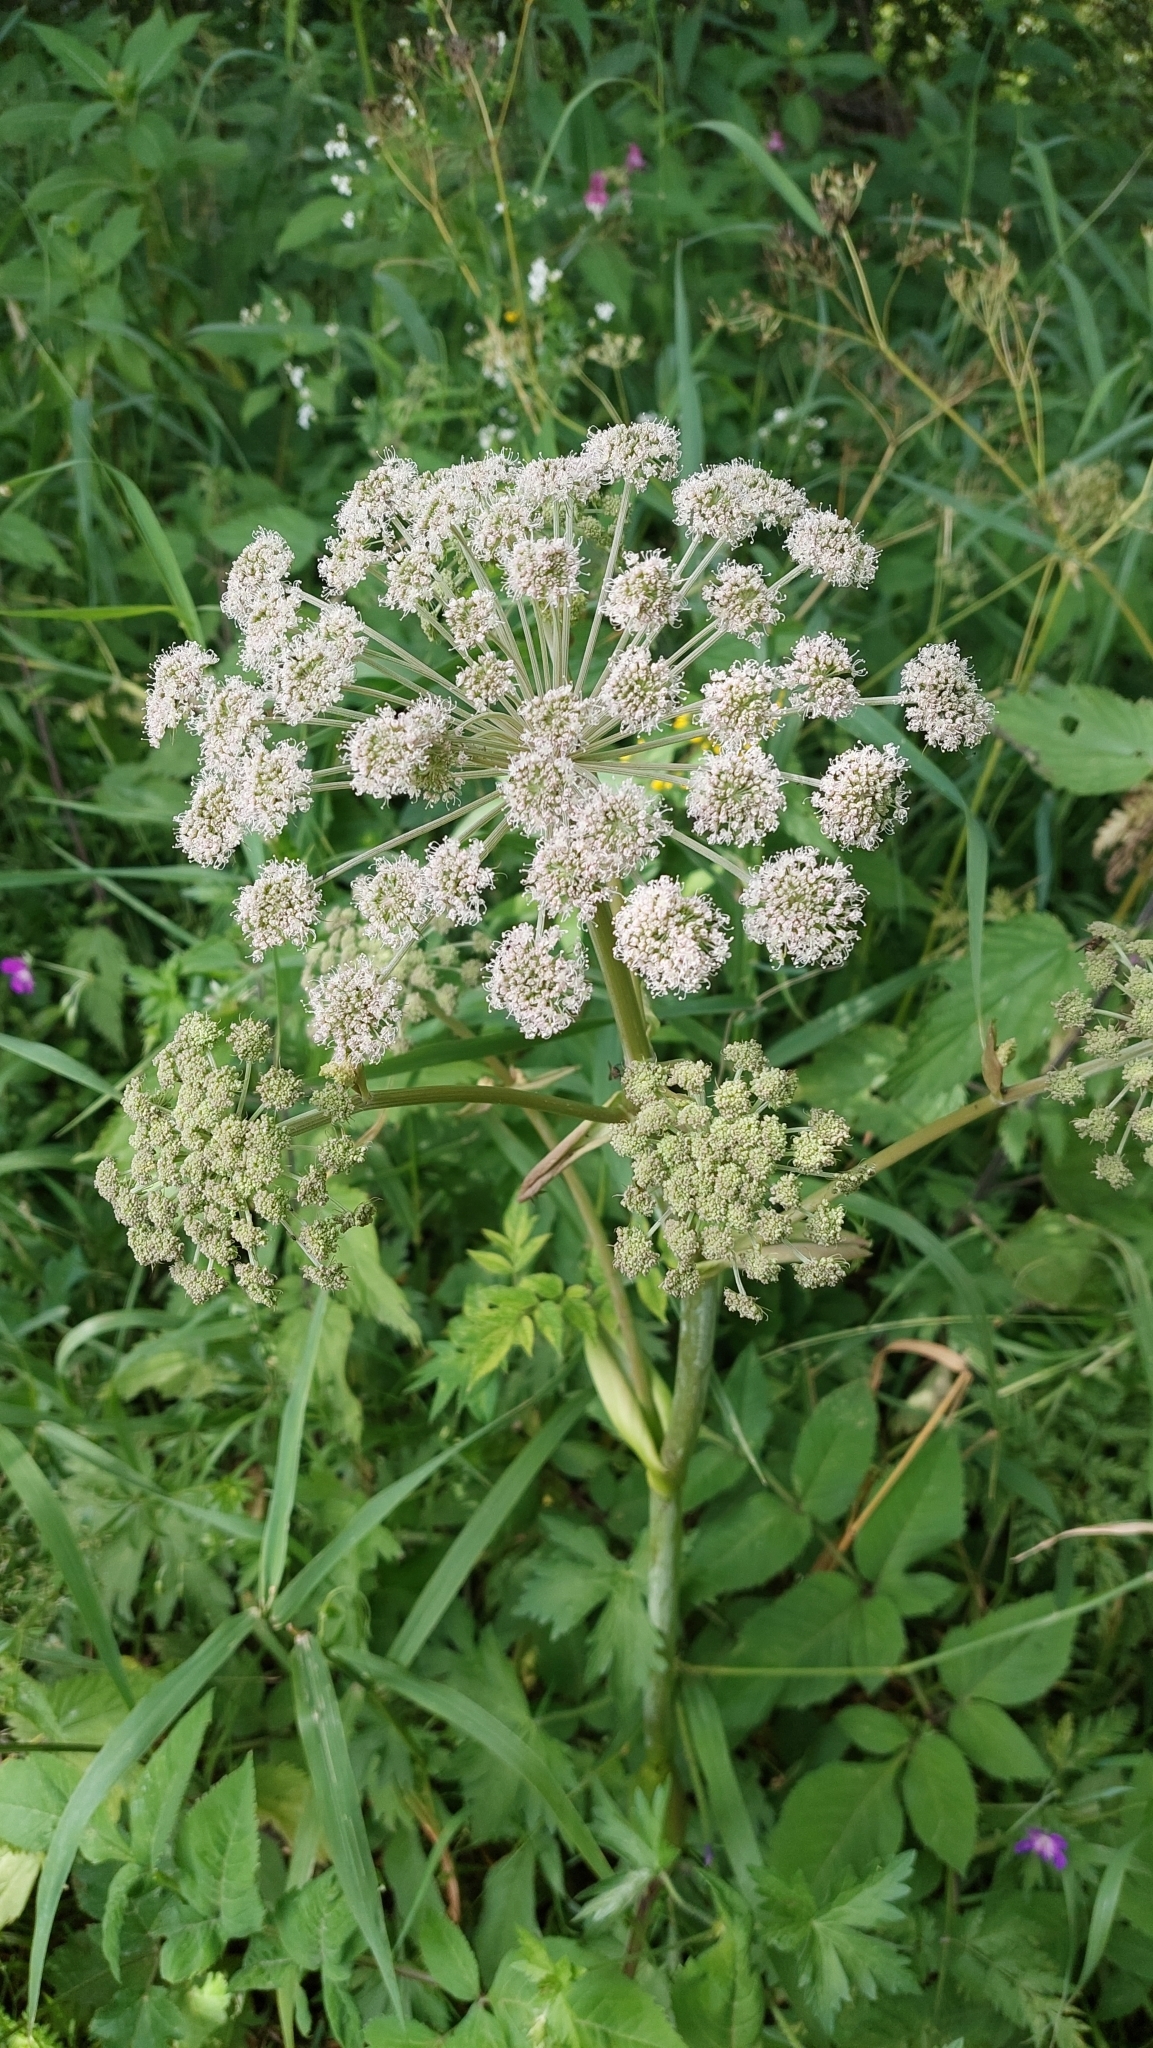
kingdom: Plantae
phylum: Tracheophyta
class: Magnoliopsida
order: Apiales
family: Apiaceae
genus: Angelica
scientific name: Angelica sylvestris
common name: Wild angelica
